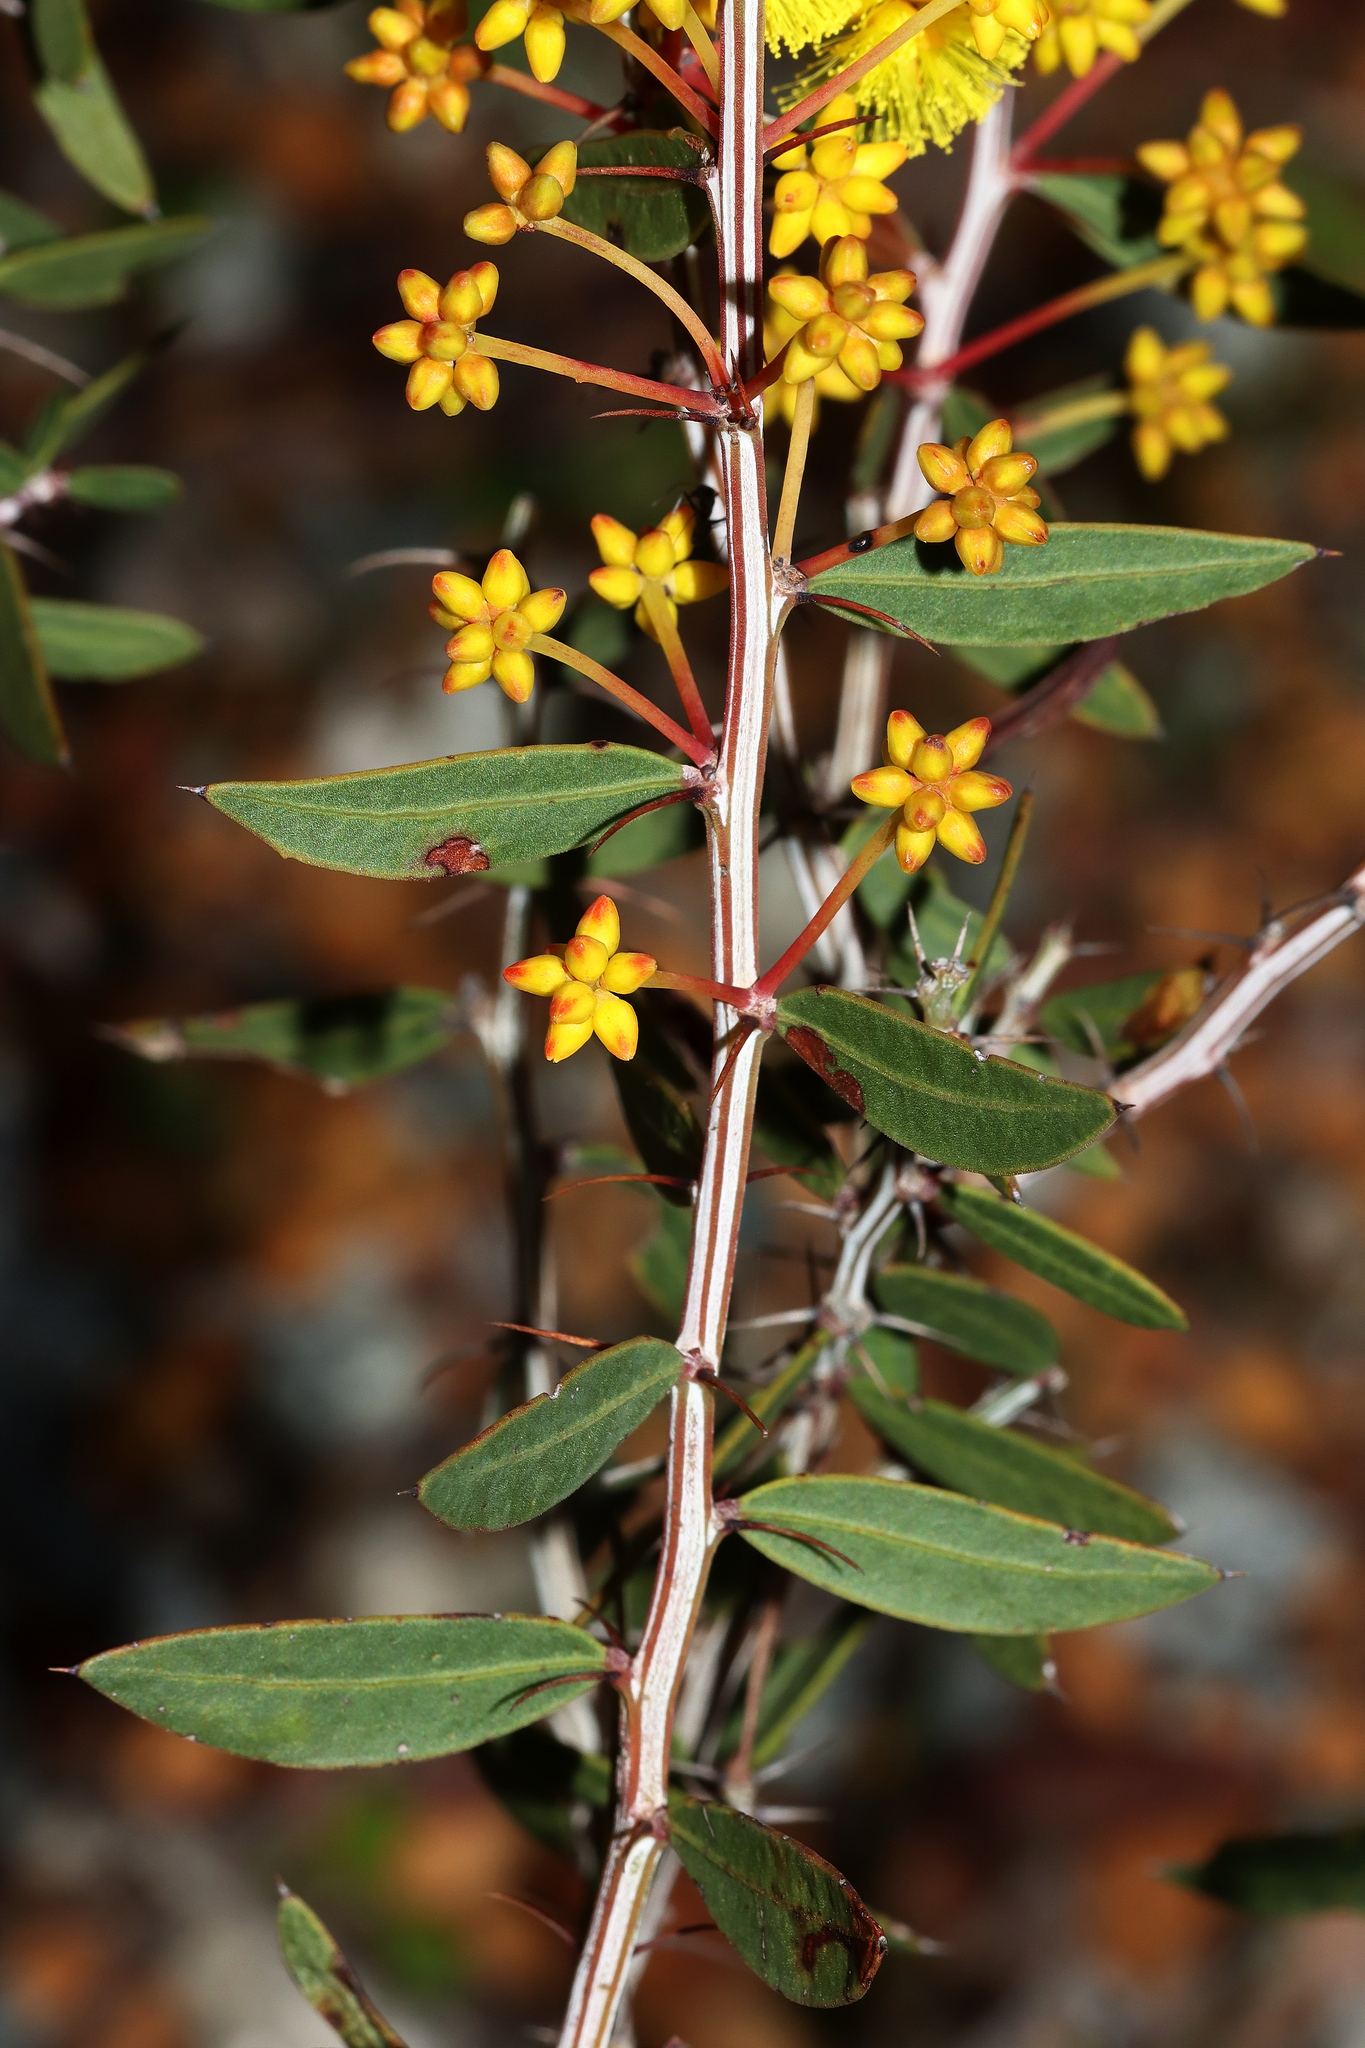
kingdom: Plantae
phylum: Tracheophyta
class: Magnoliopsida
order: Fabales
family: Fabaceae
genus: Acacia
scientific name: Acacia nervosa
